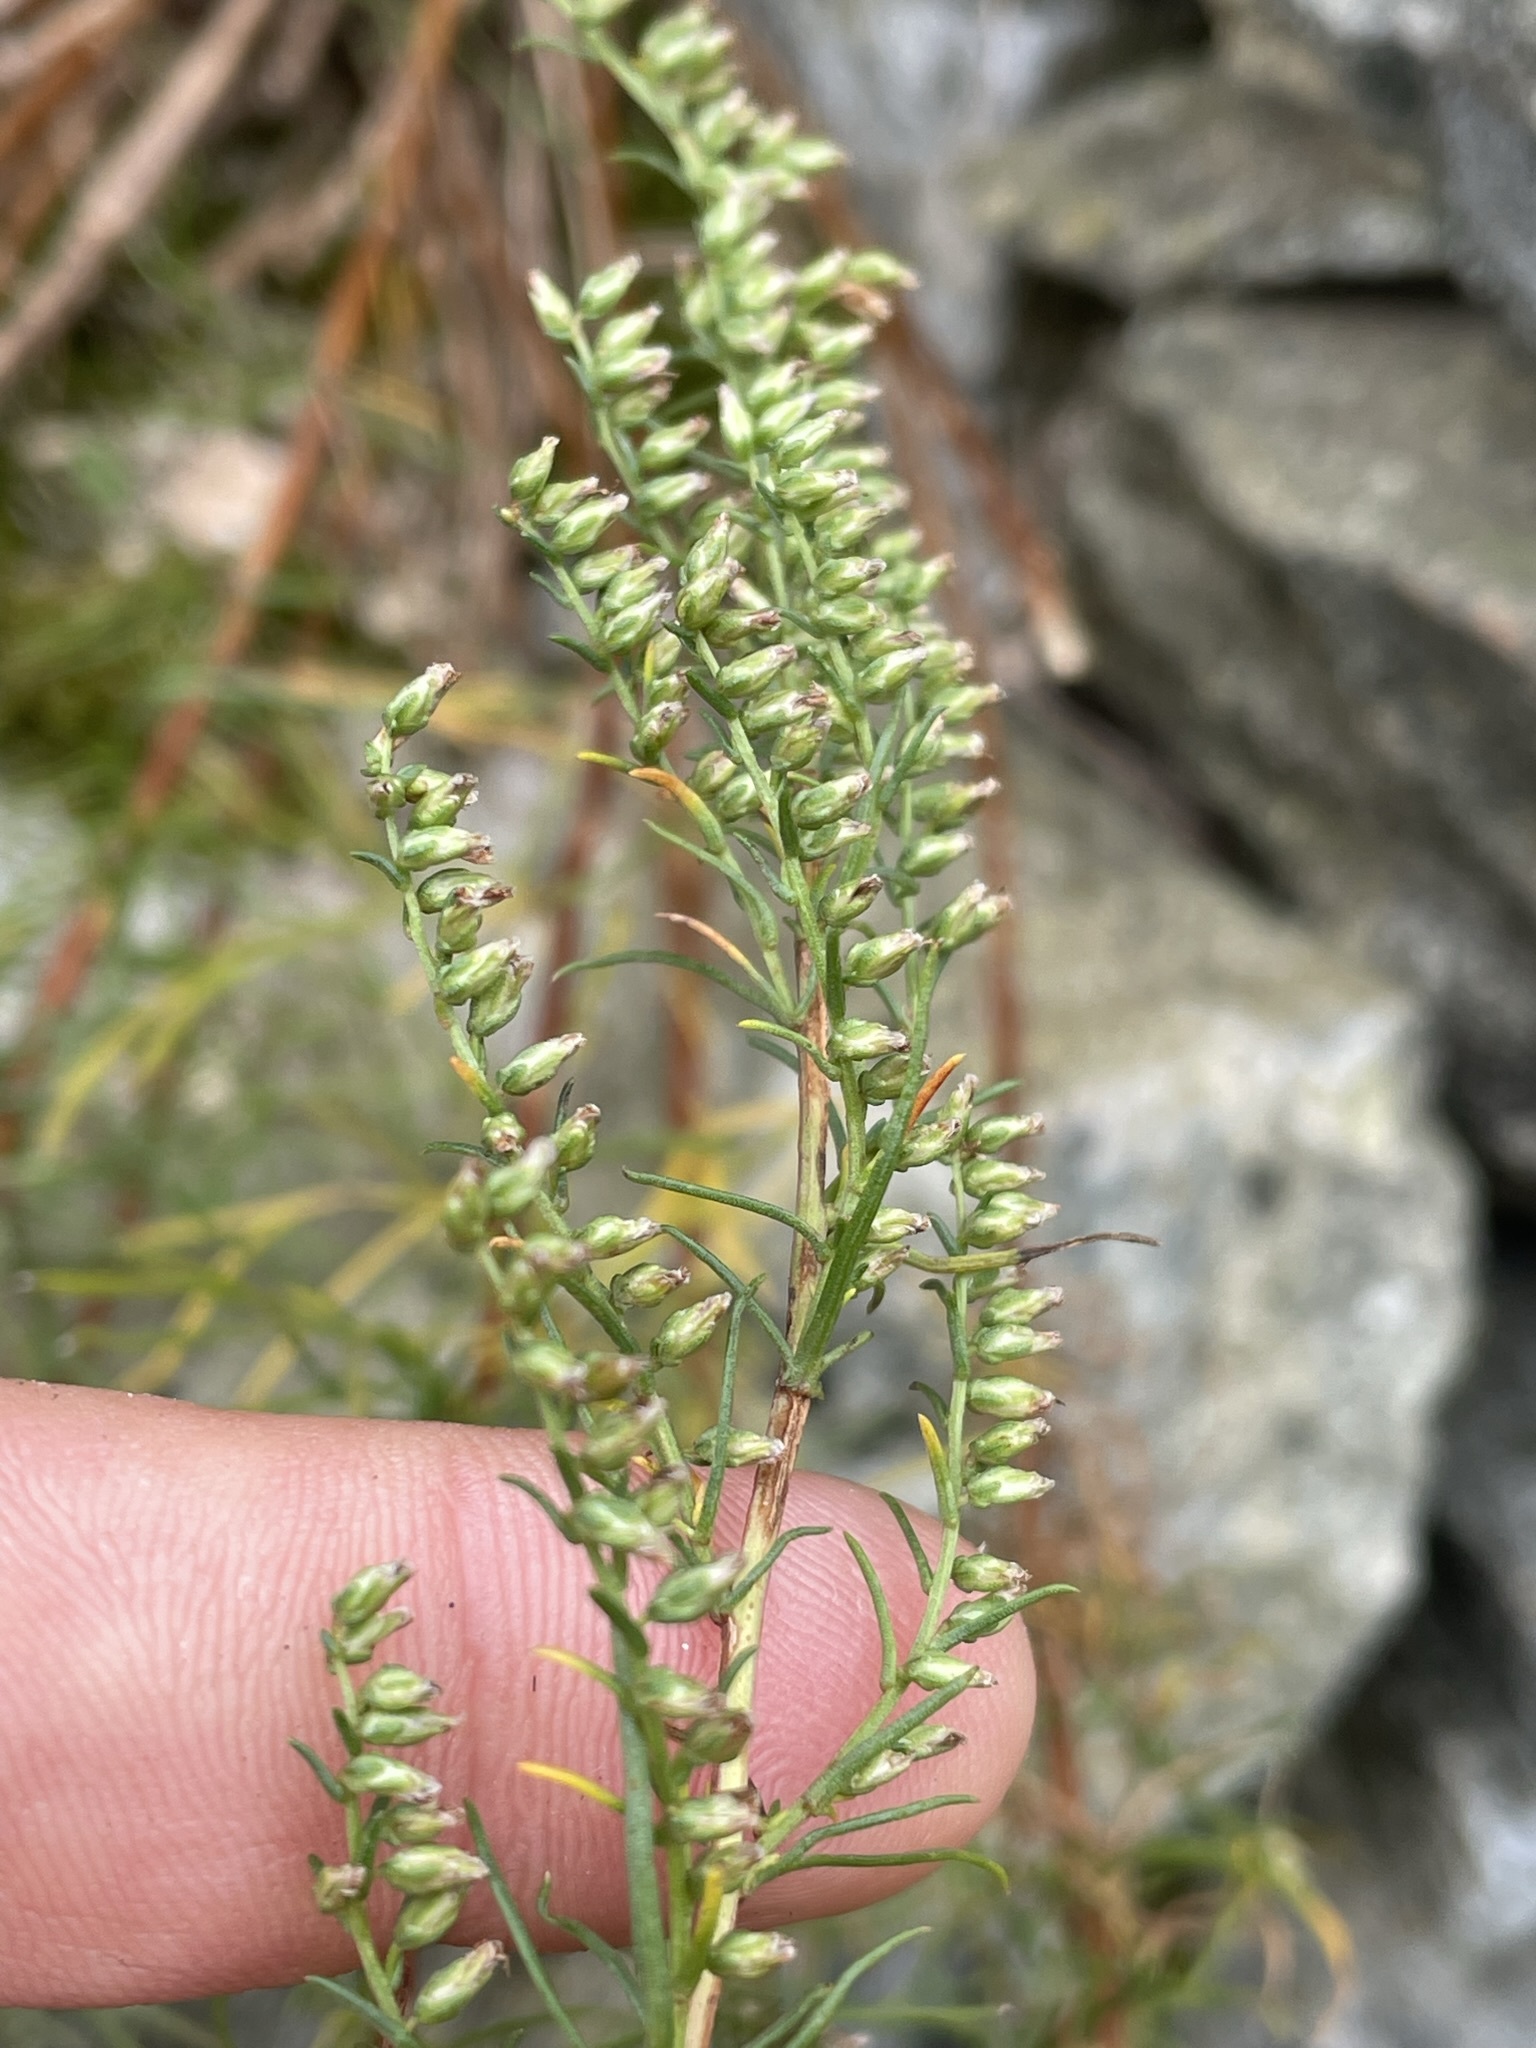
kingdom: Plantae
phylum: Tracheophyta
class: Magnoliopsida
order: Asterales
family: Asteraceae
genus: Artemisia
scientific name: Artemisia campestris
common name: Field wormwood
